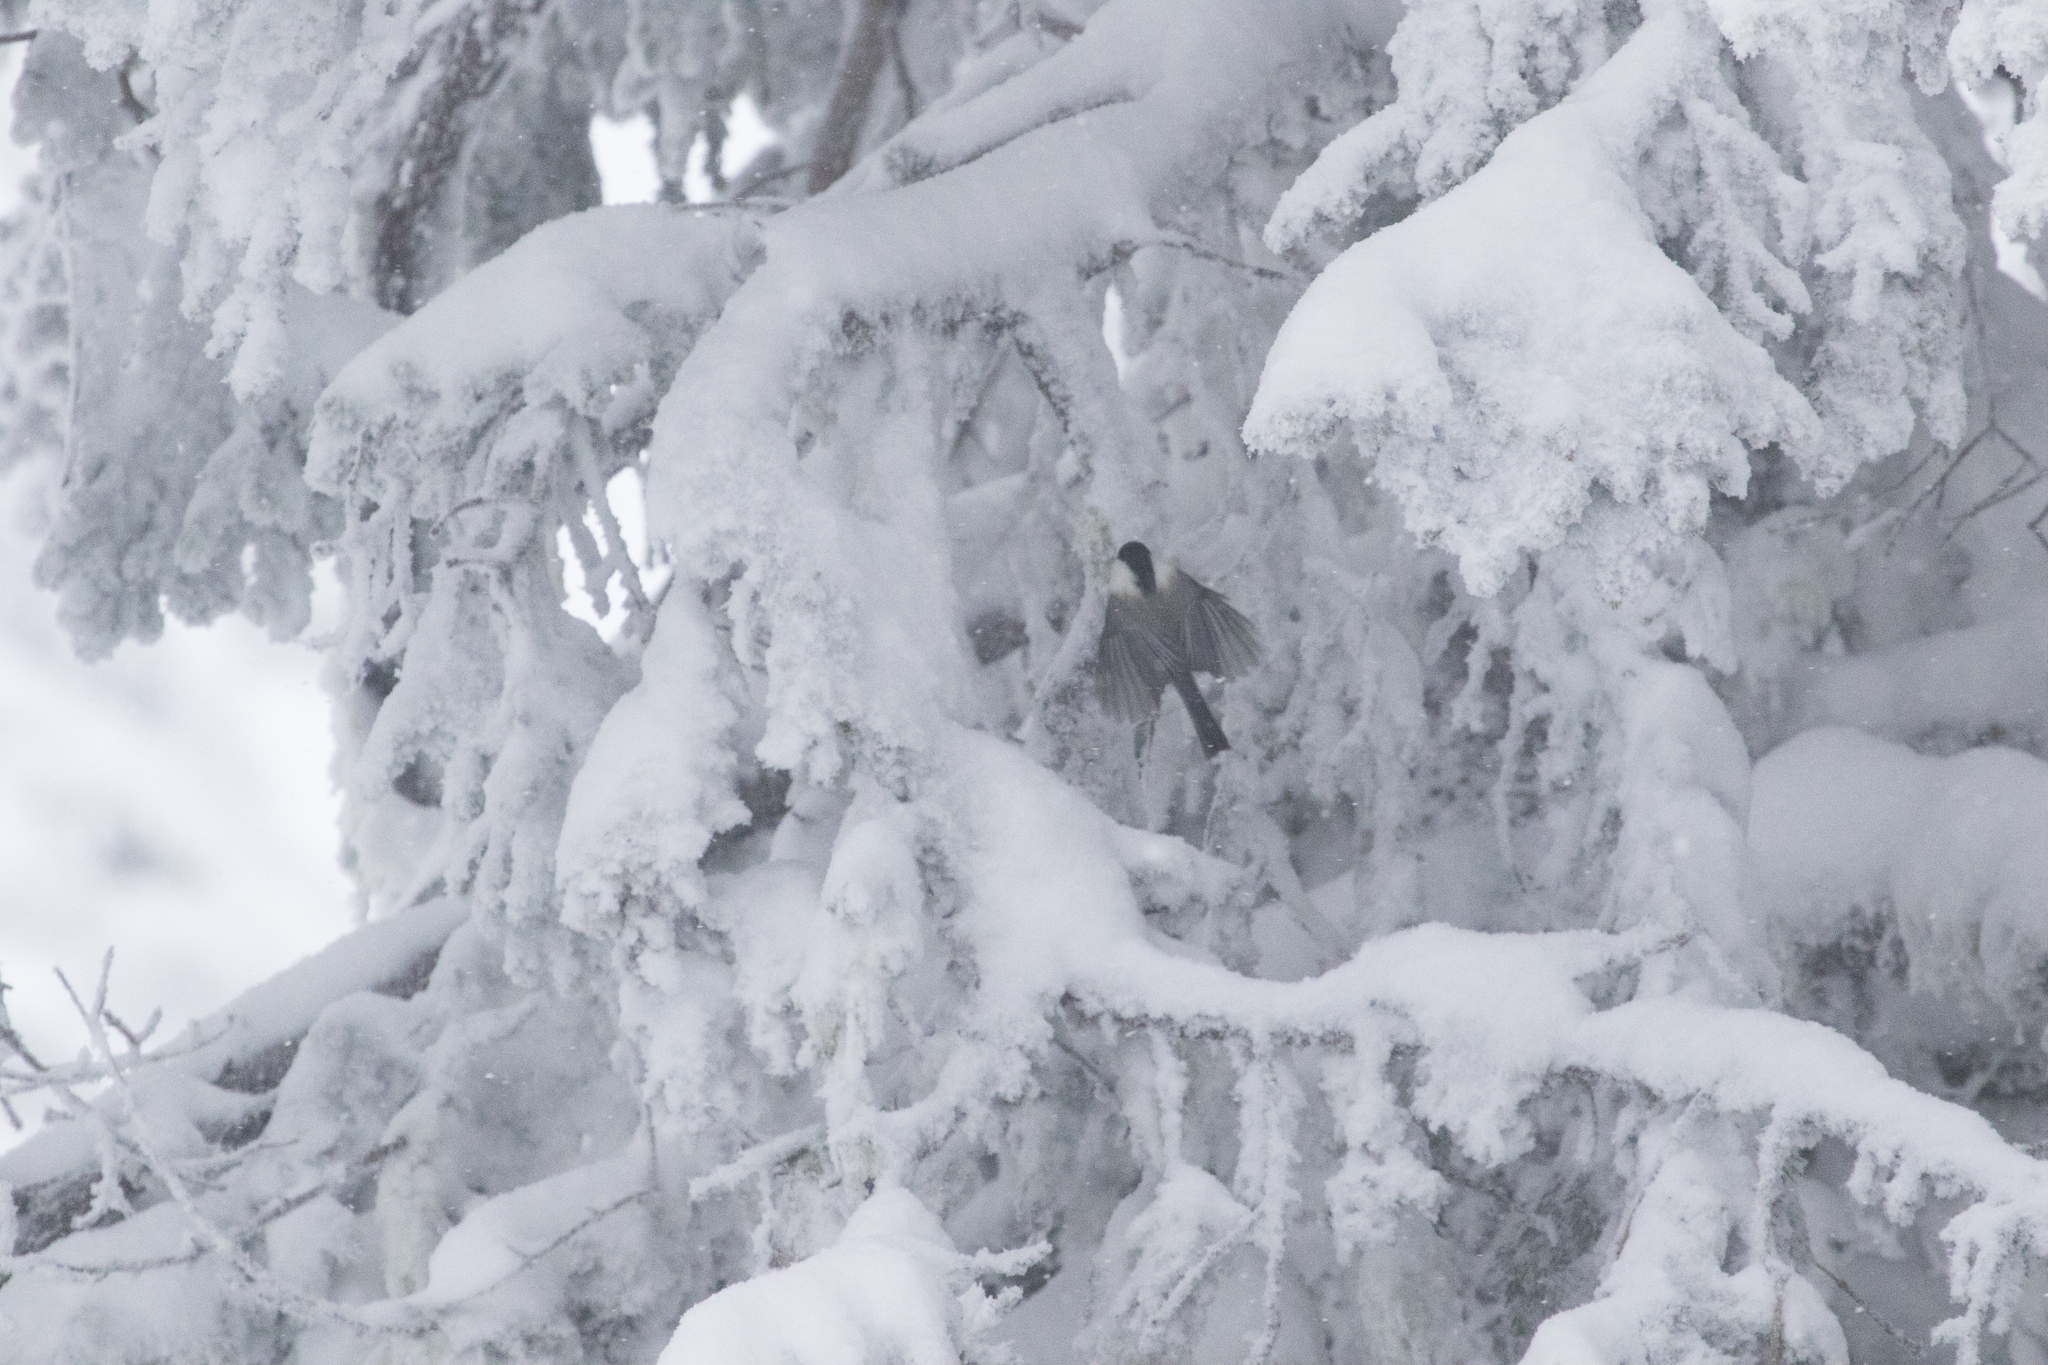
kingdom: Animalia
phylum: Chordata
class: Aves
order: Passeriformes
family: Paridae
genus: Poecile
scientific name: Poecile montanus
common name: Willow tit
